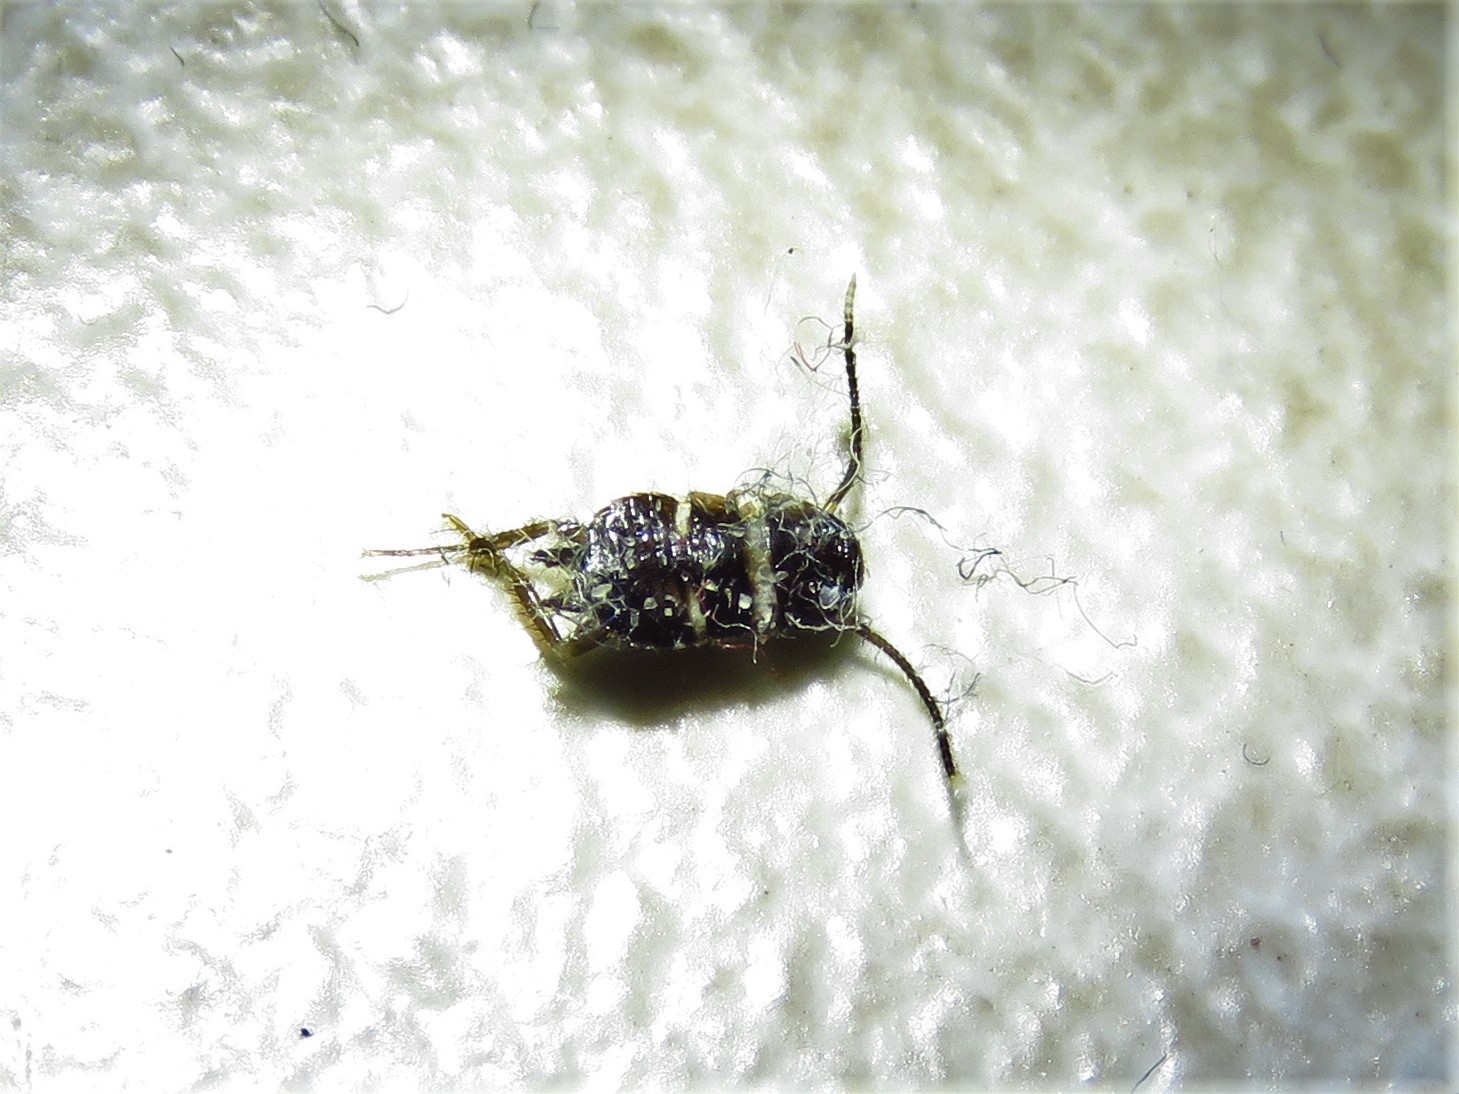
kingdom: Animalia
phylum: Arthropoda
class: Insecta
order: Blattodea
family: Blattidae
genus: Periplaneta
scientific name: Periplaneta fuliginosa
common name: Smokeybrown cockroad
